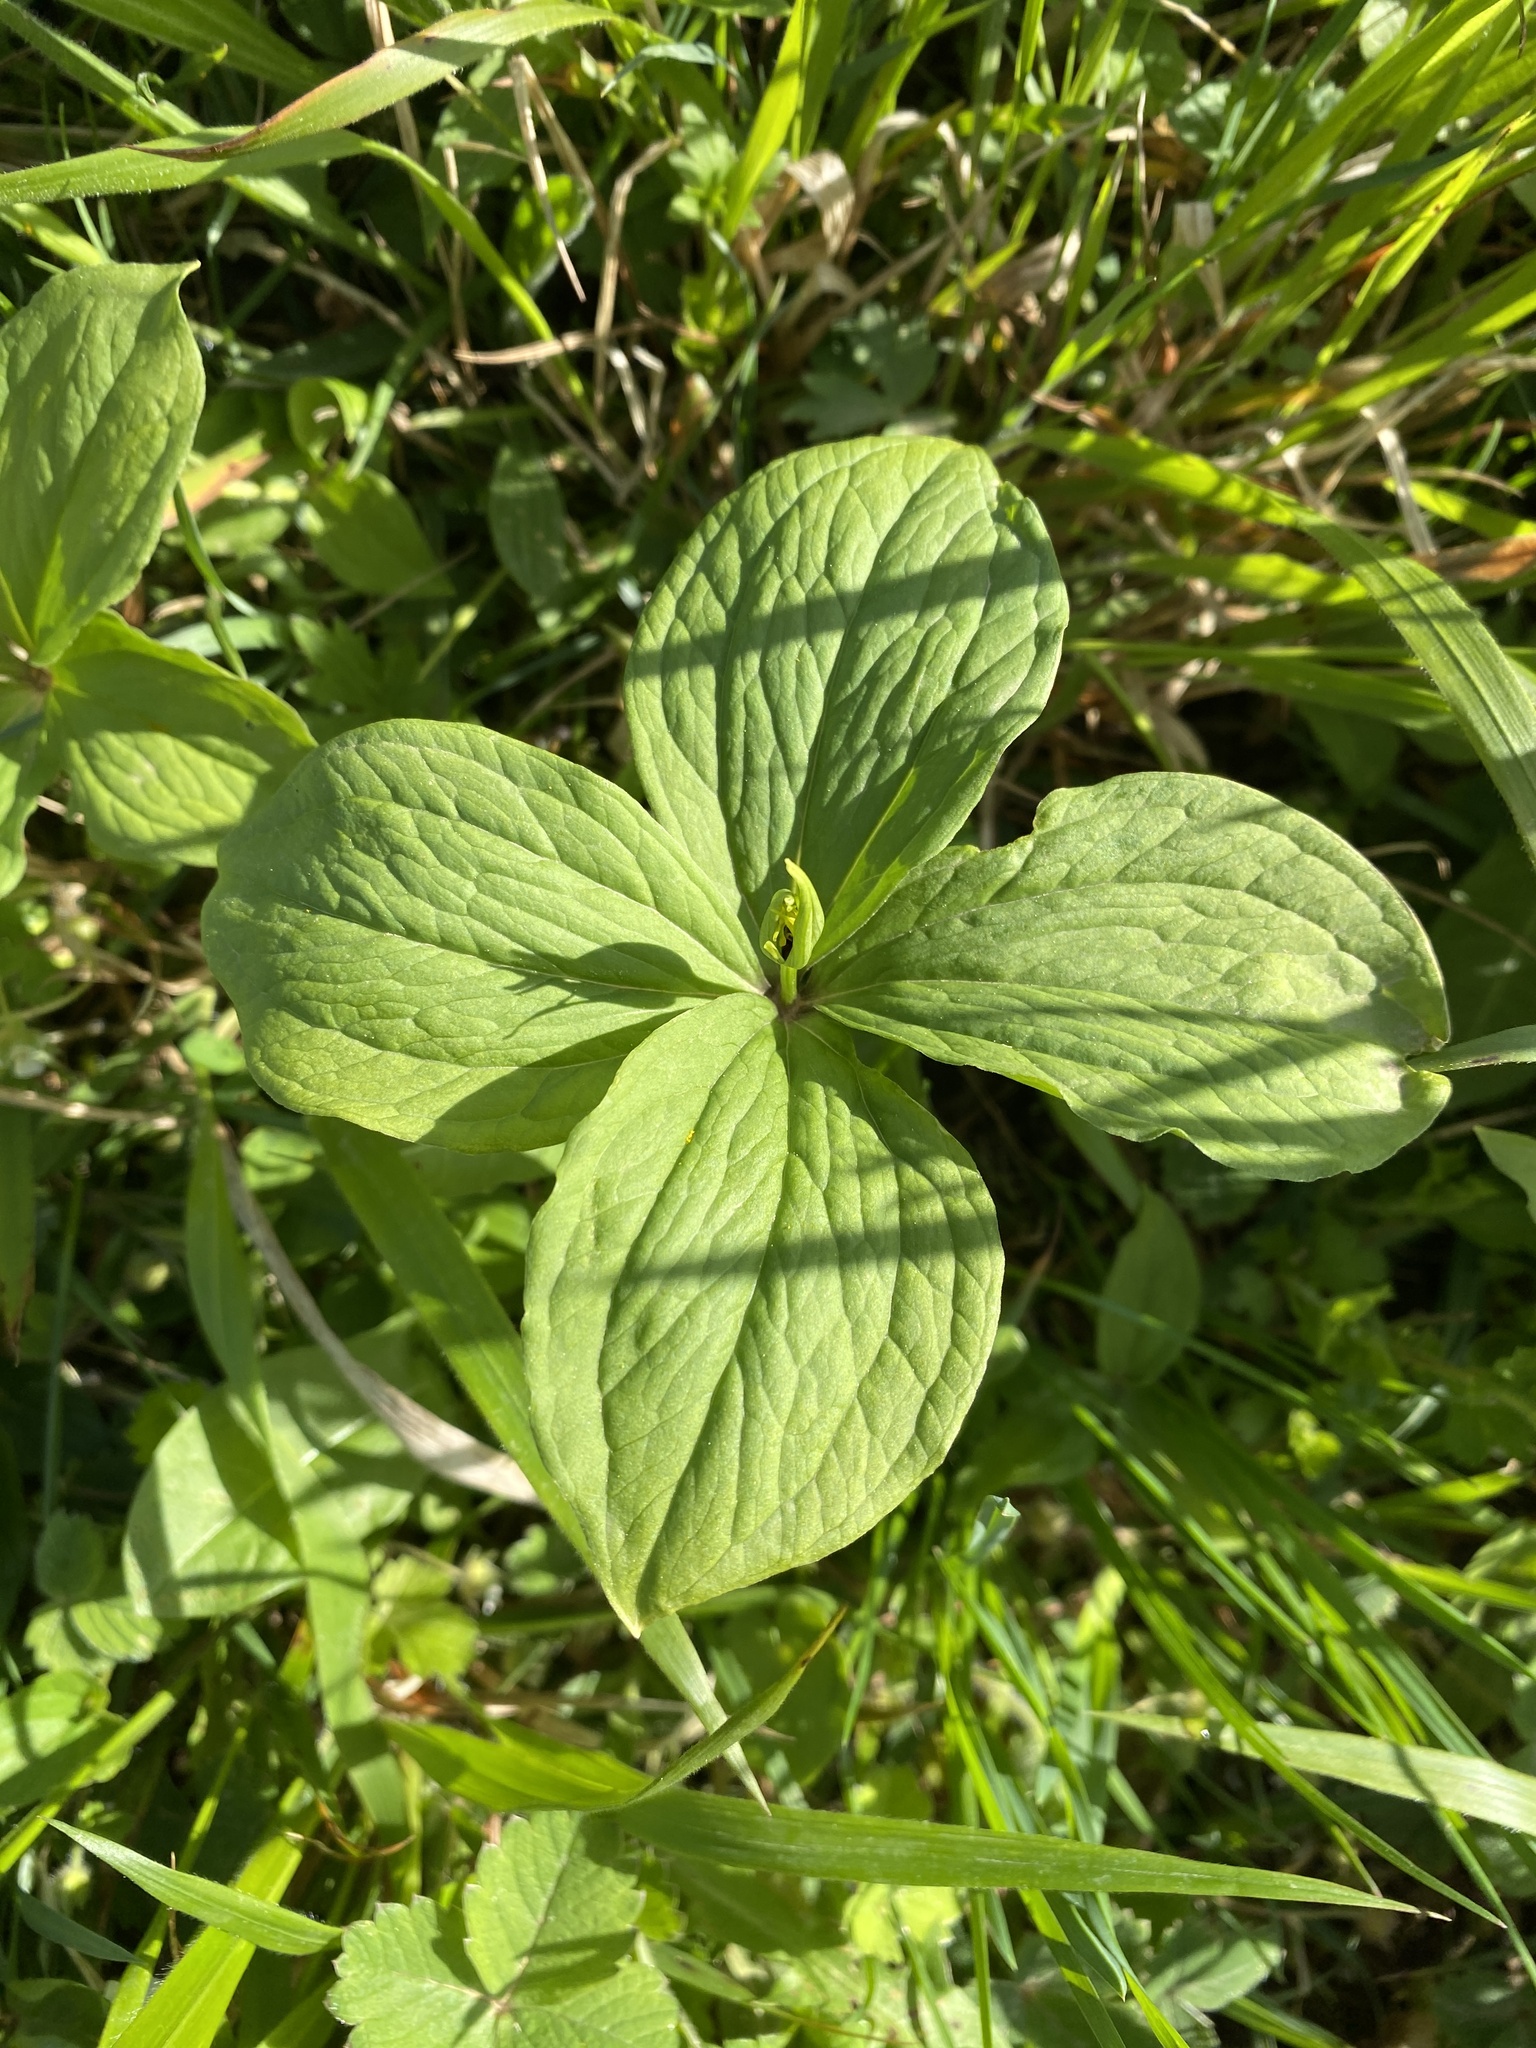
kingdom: Plantae
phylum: Tracheophyta
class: Liliopsida
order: Liliales
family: Melanthiaceae
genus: Paris
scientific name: Paris quadrifolia
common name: Herb-paris
